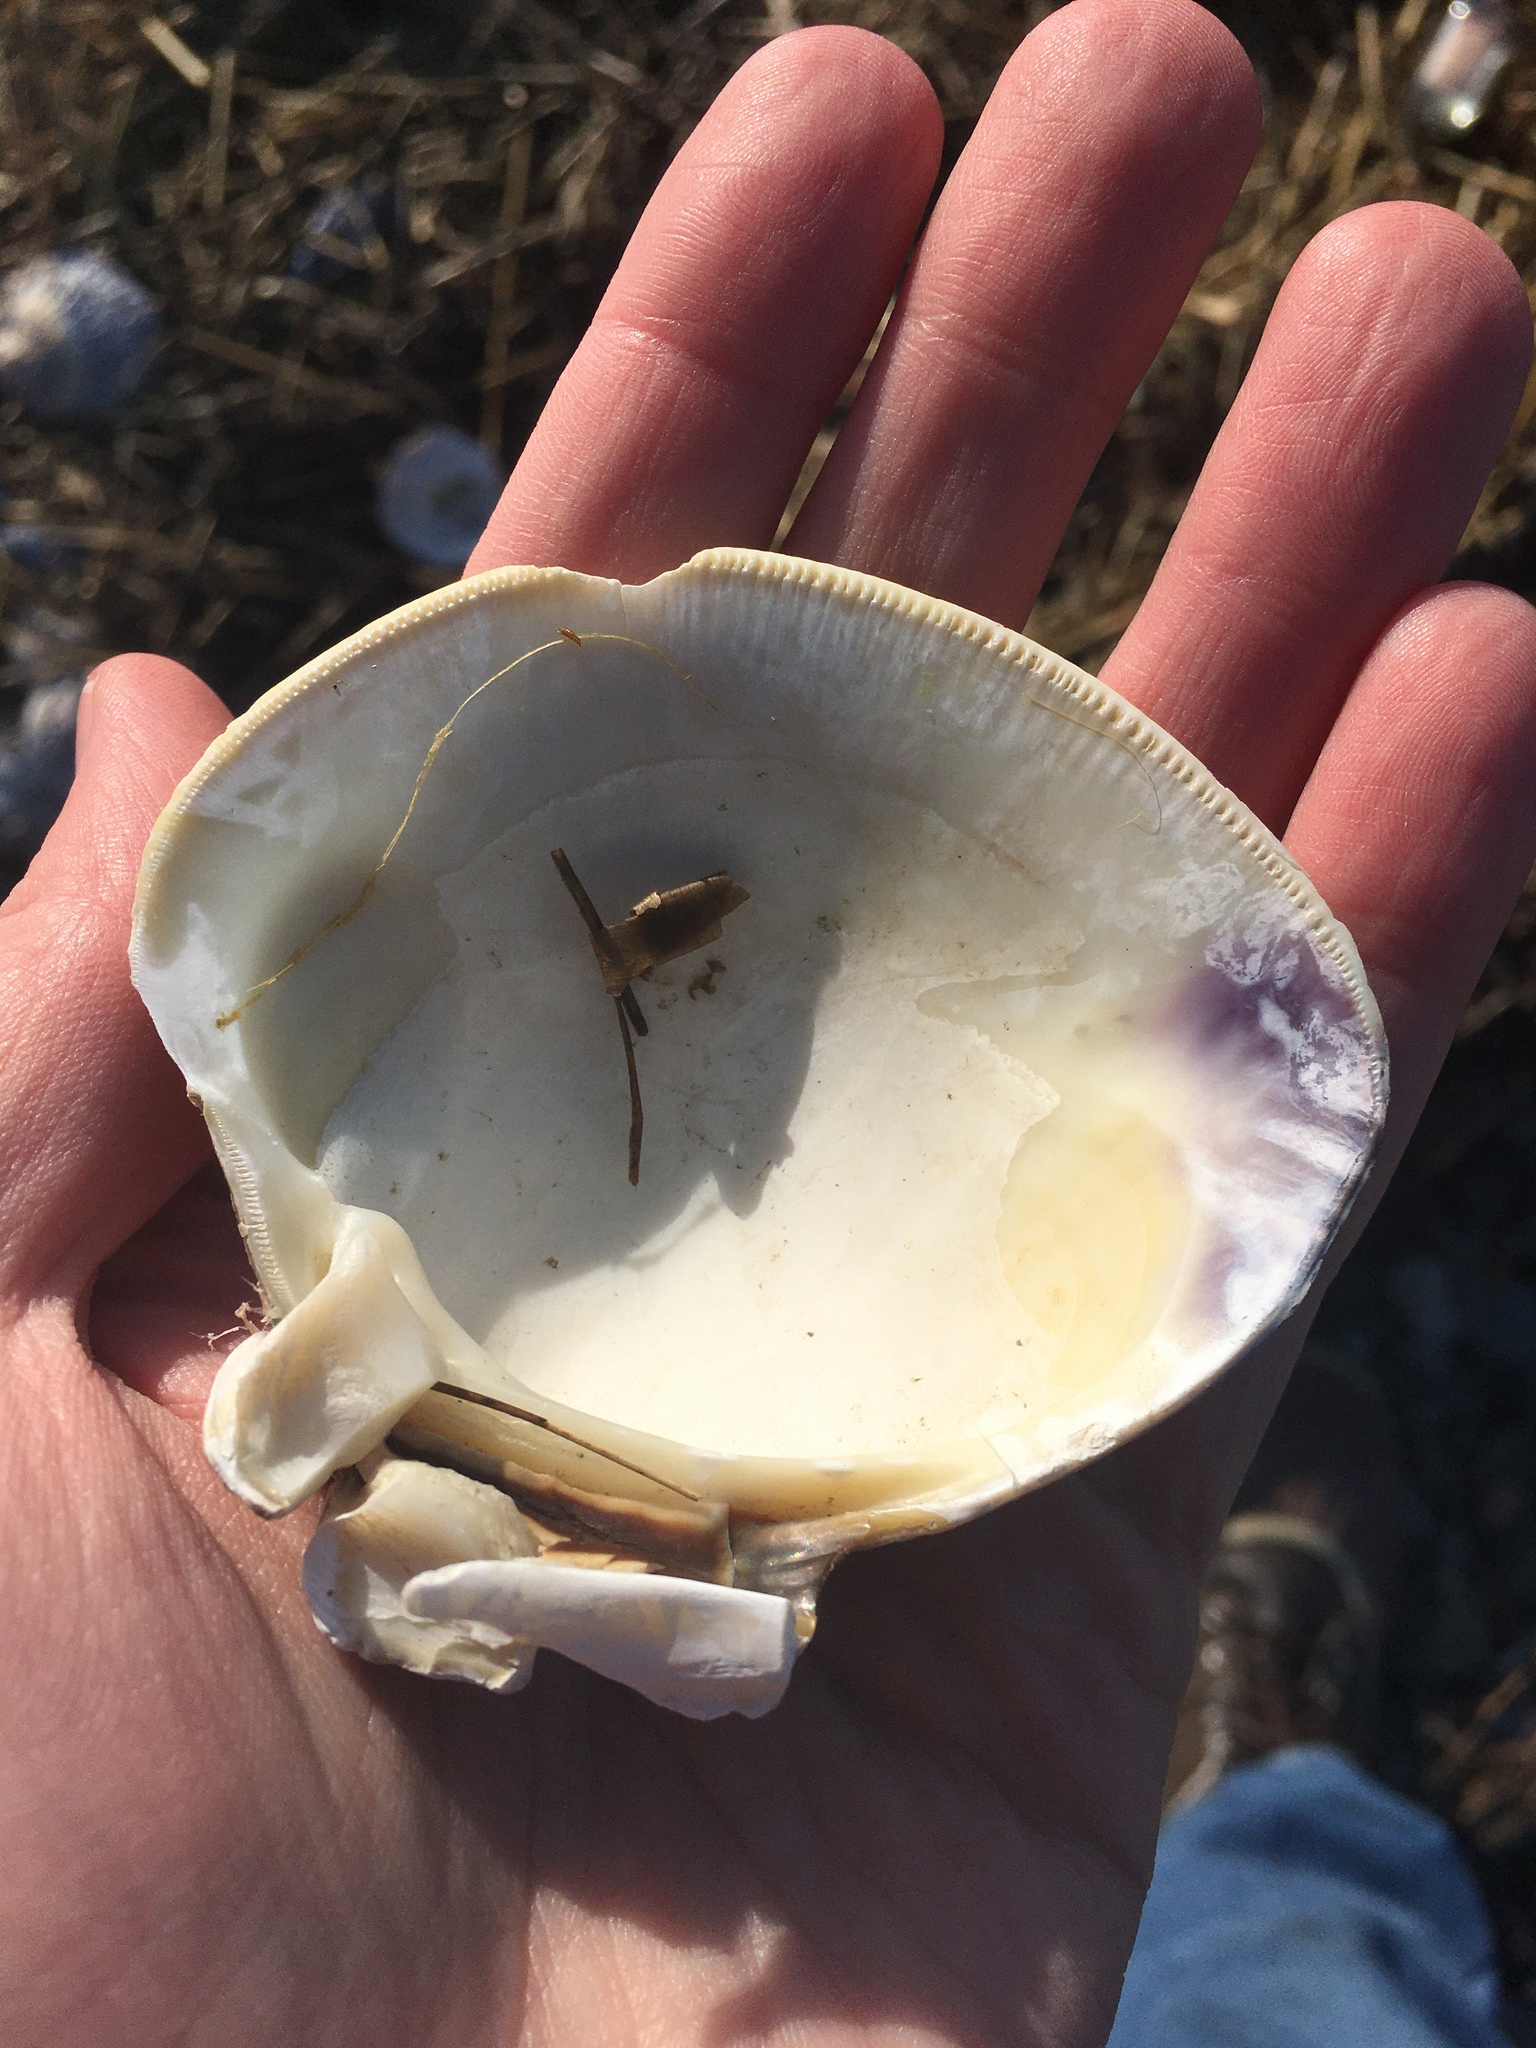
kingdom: Animalia
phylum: Mollusca
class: Bivalvia
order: Venerida
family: Veneridae
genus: Mercenaria
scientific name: Mercenaria mercenaria
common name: American hard-shelled clam
